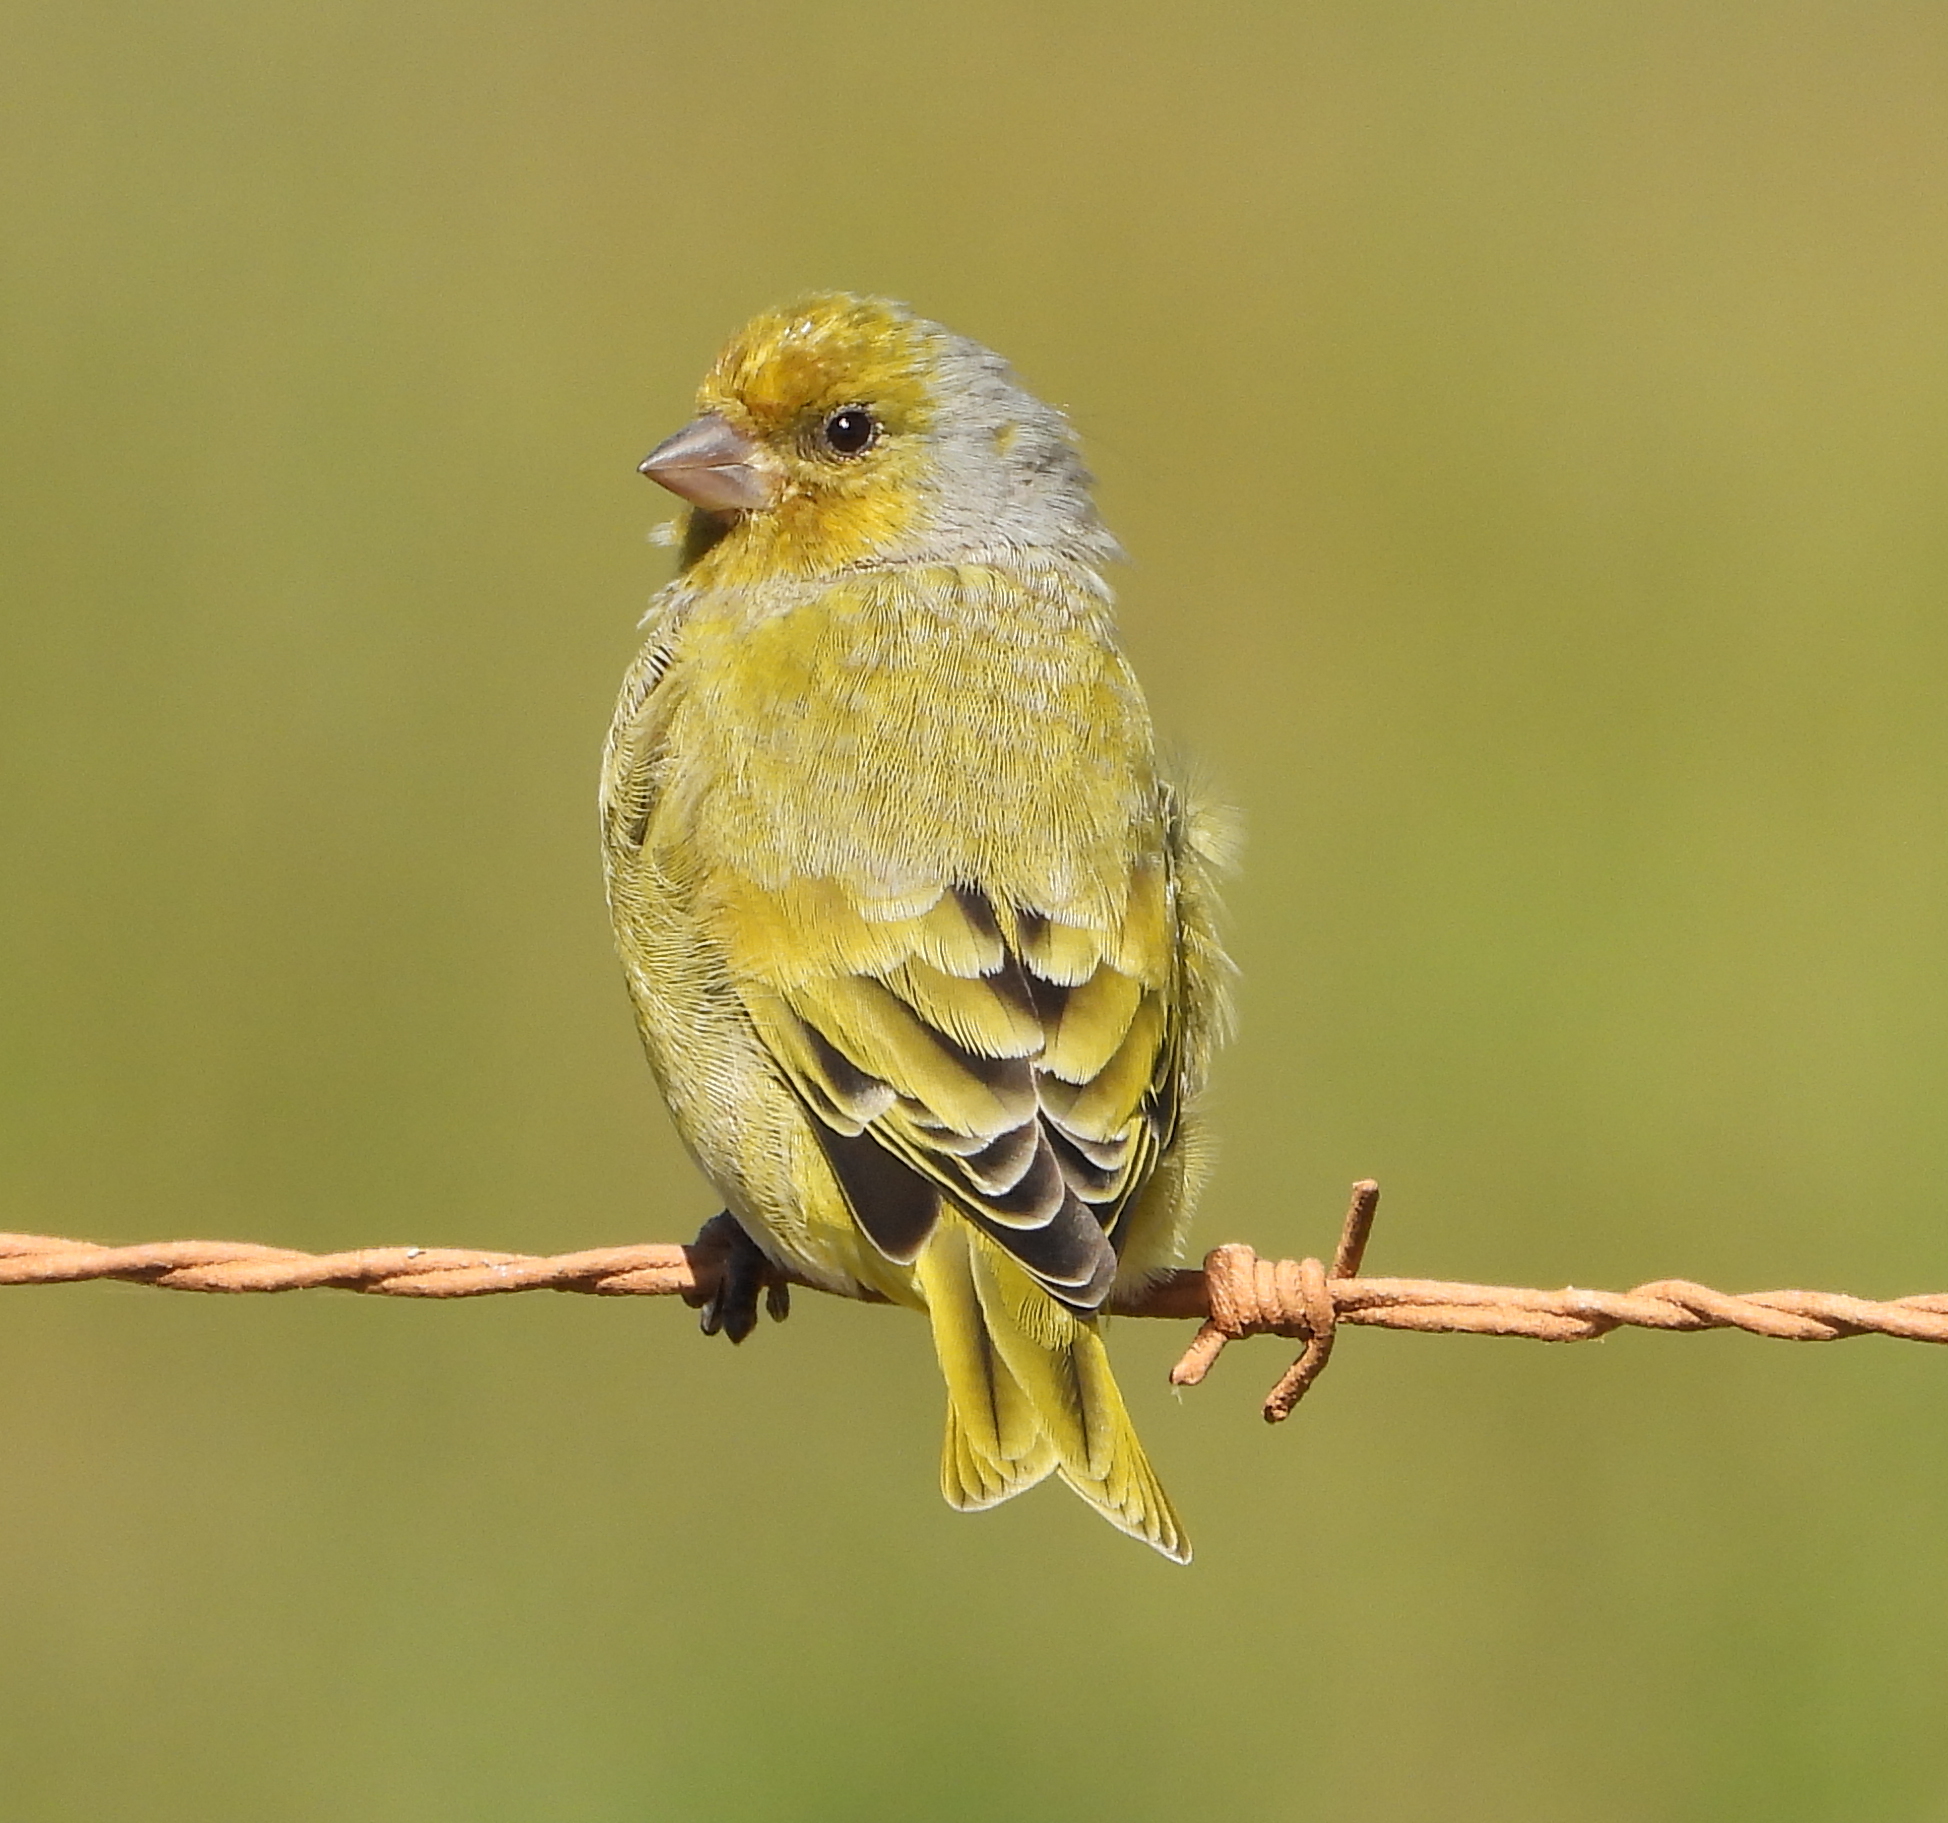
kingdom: Animalia
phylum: Chordata
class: Aves
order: Passeriformes
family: Fringillidae
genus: Serinus
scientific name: Serinus canicollis
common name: Cape canary
